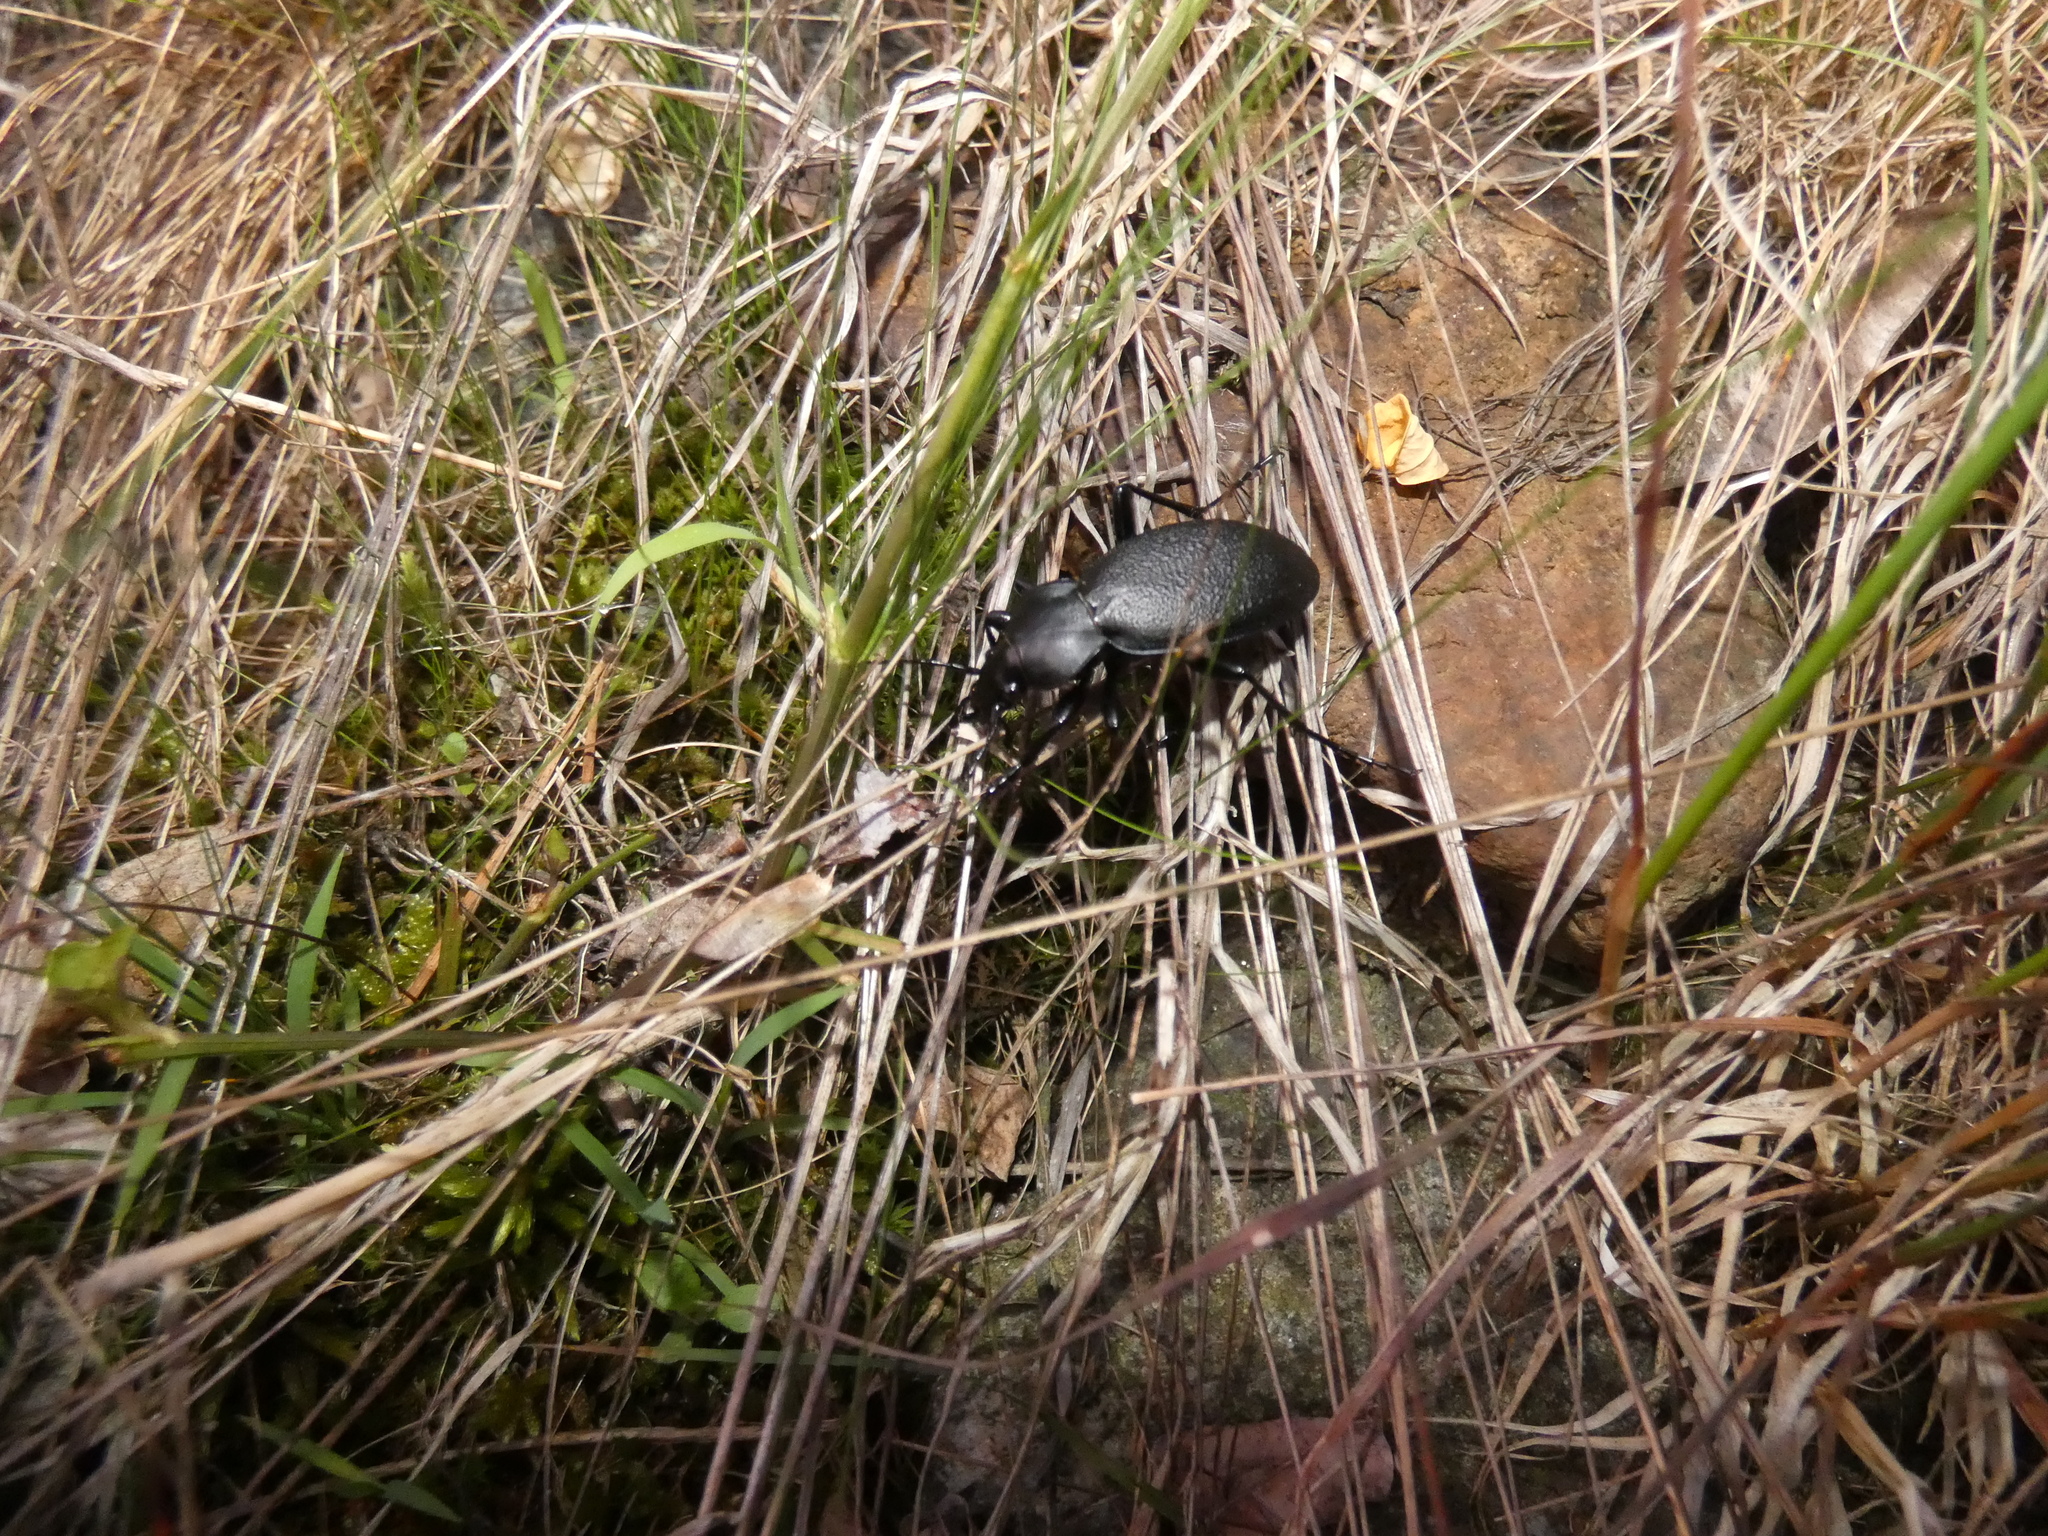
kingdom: Animalia
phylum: Arthropoda
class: Insecta
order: Coleoptera
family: Carabidae
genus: Carabus
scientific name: Carabus coriaceus
